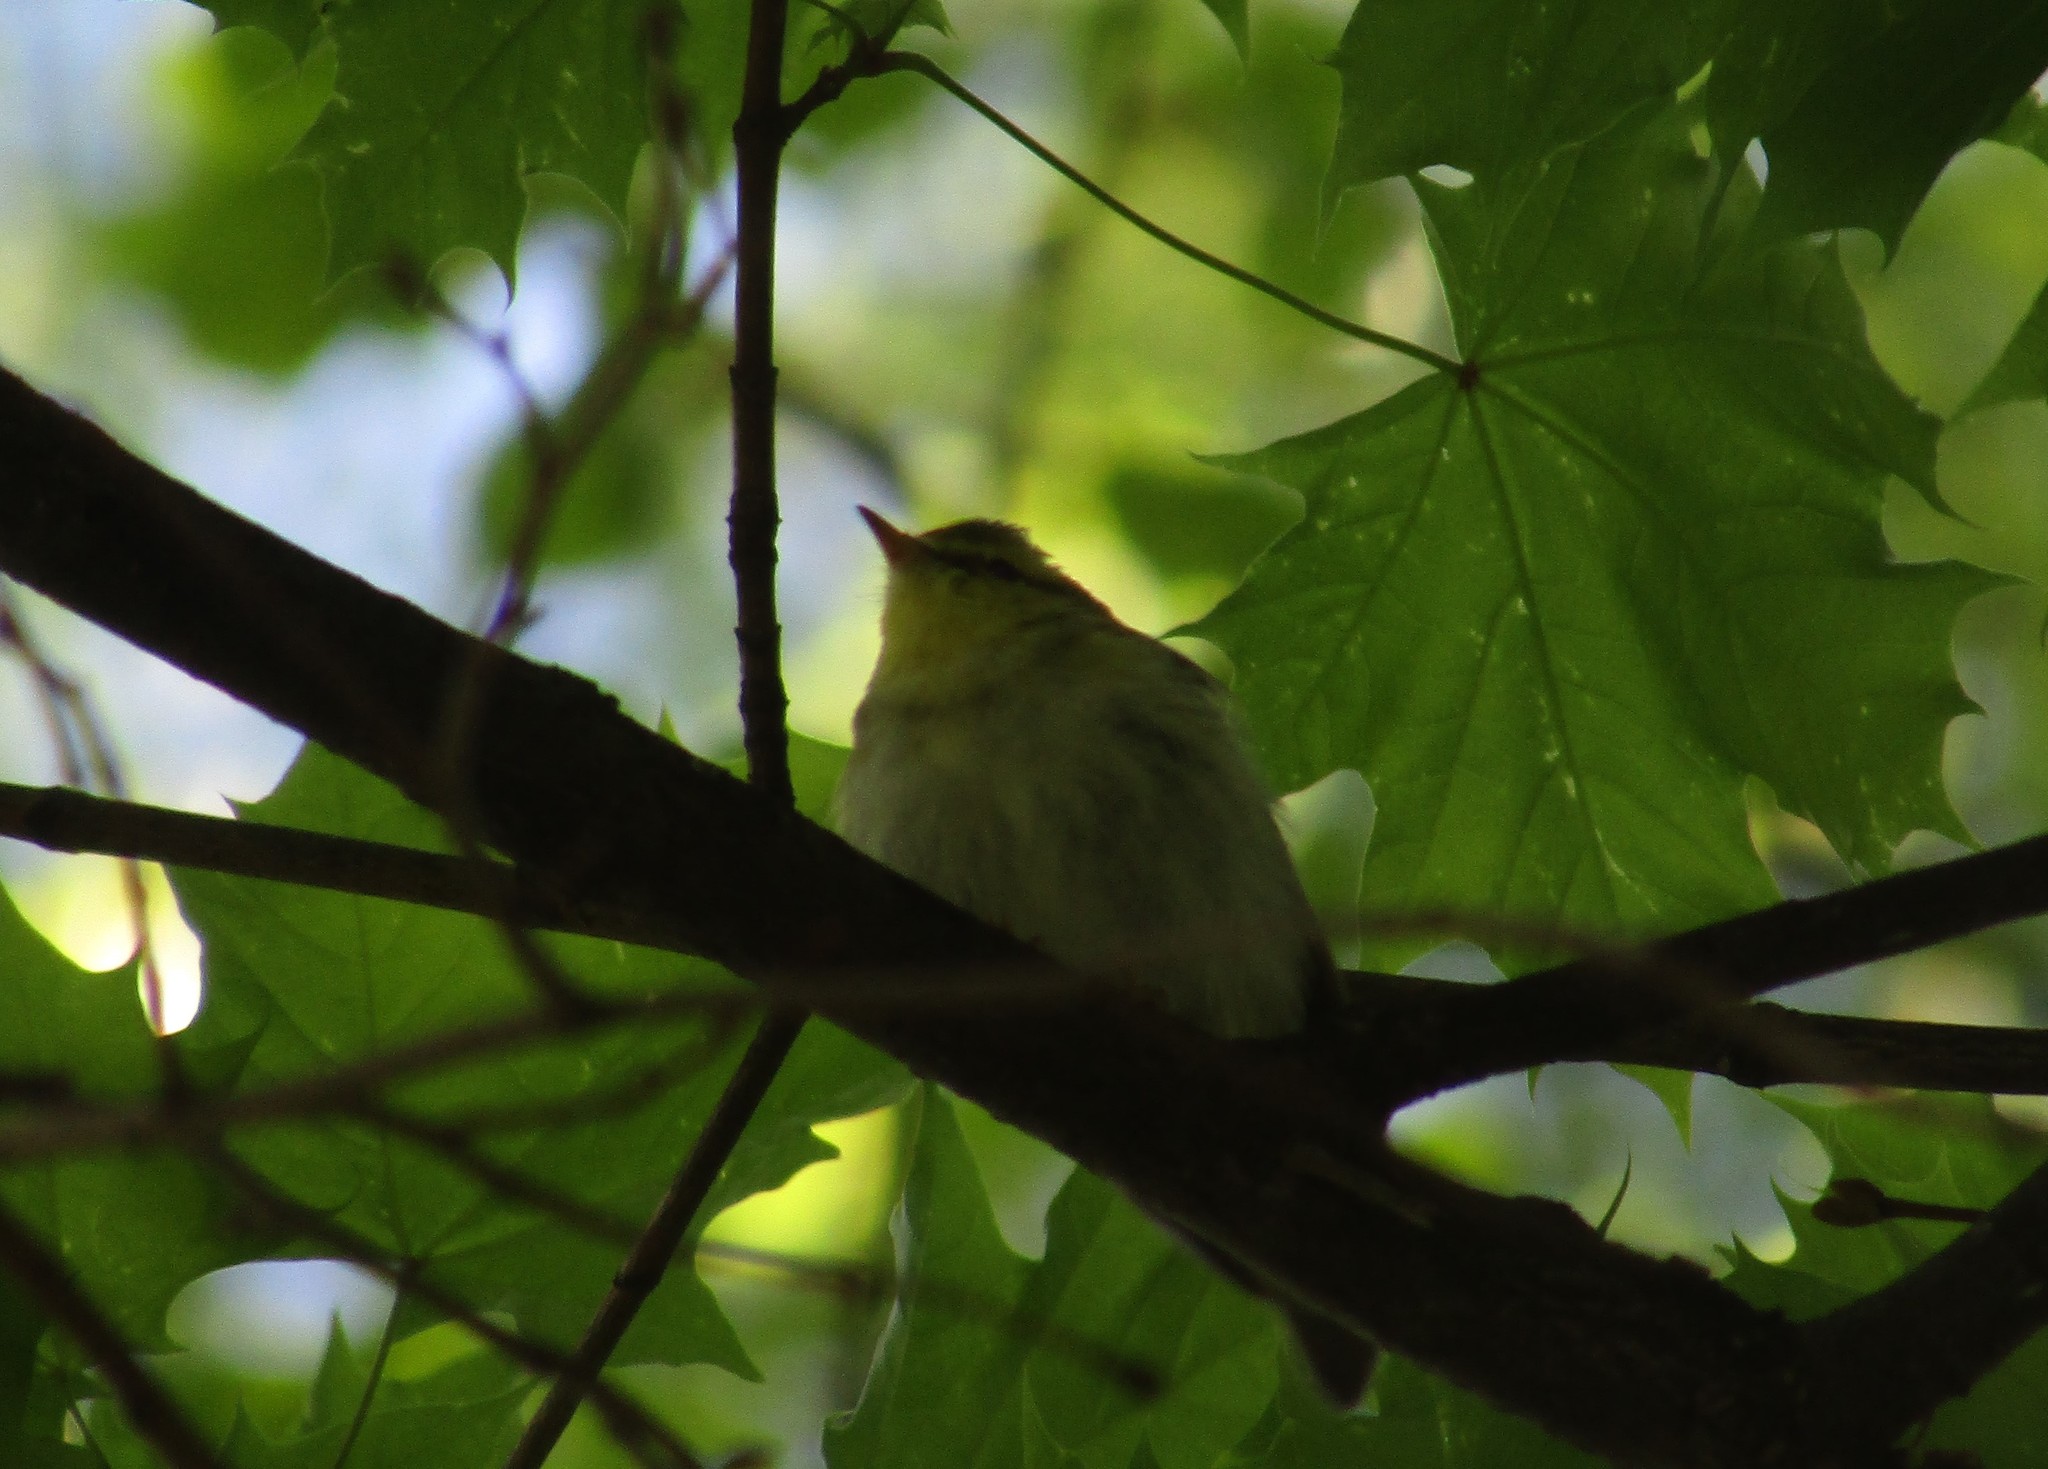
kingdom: Animalia
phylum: Chordata
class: Aves
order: Passeriformes
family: Phylloscopidae
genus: Phylloscopus
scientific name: Phylloscopus sibillatrix
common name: Wood warbler
